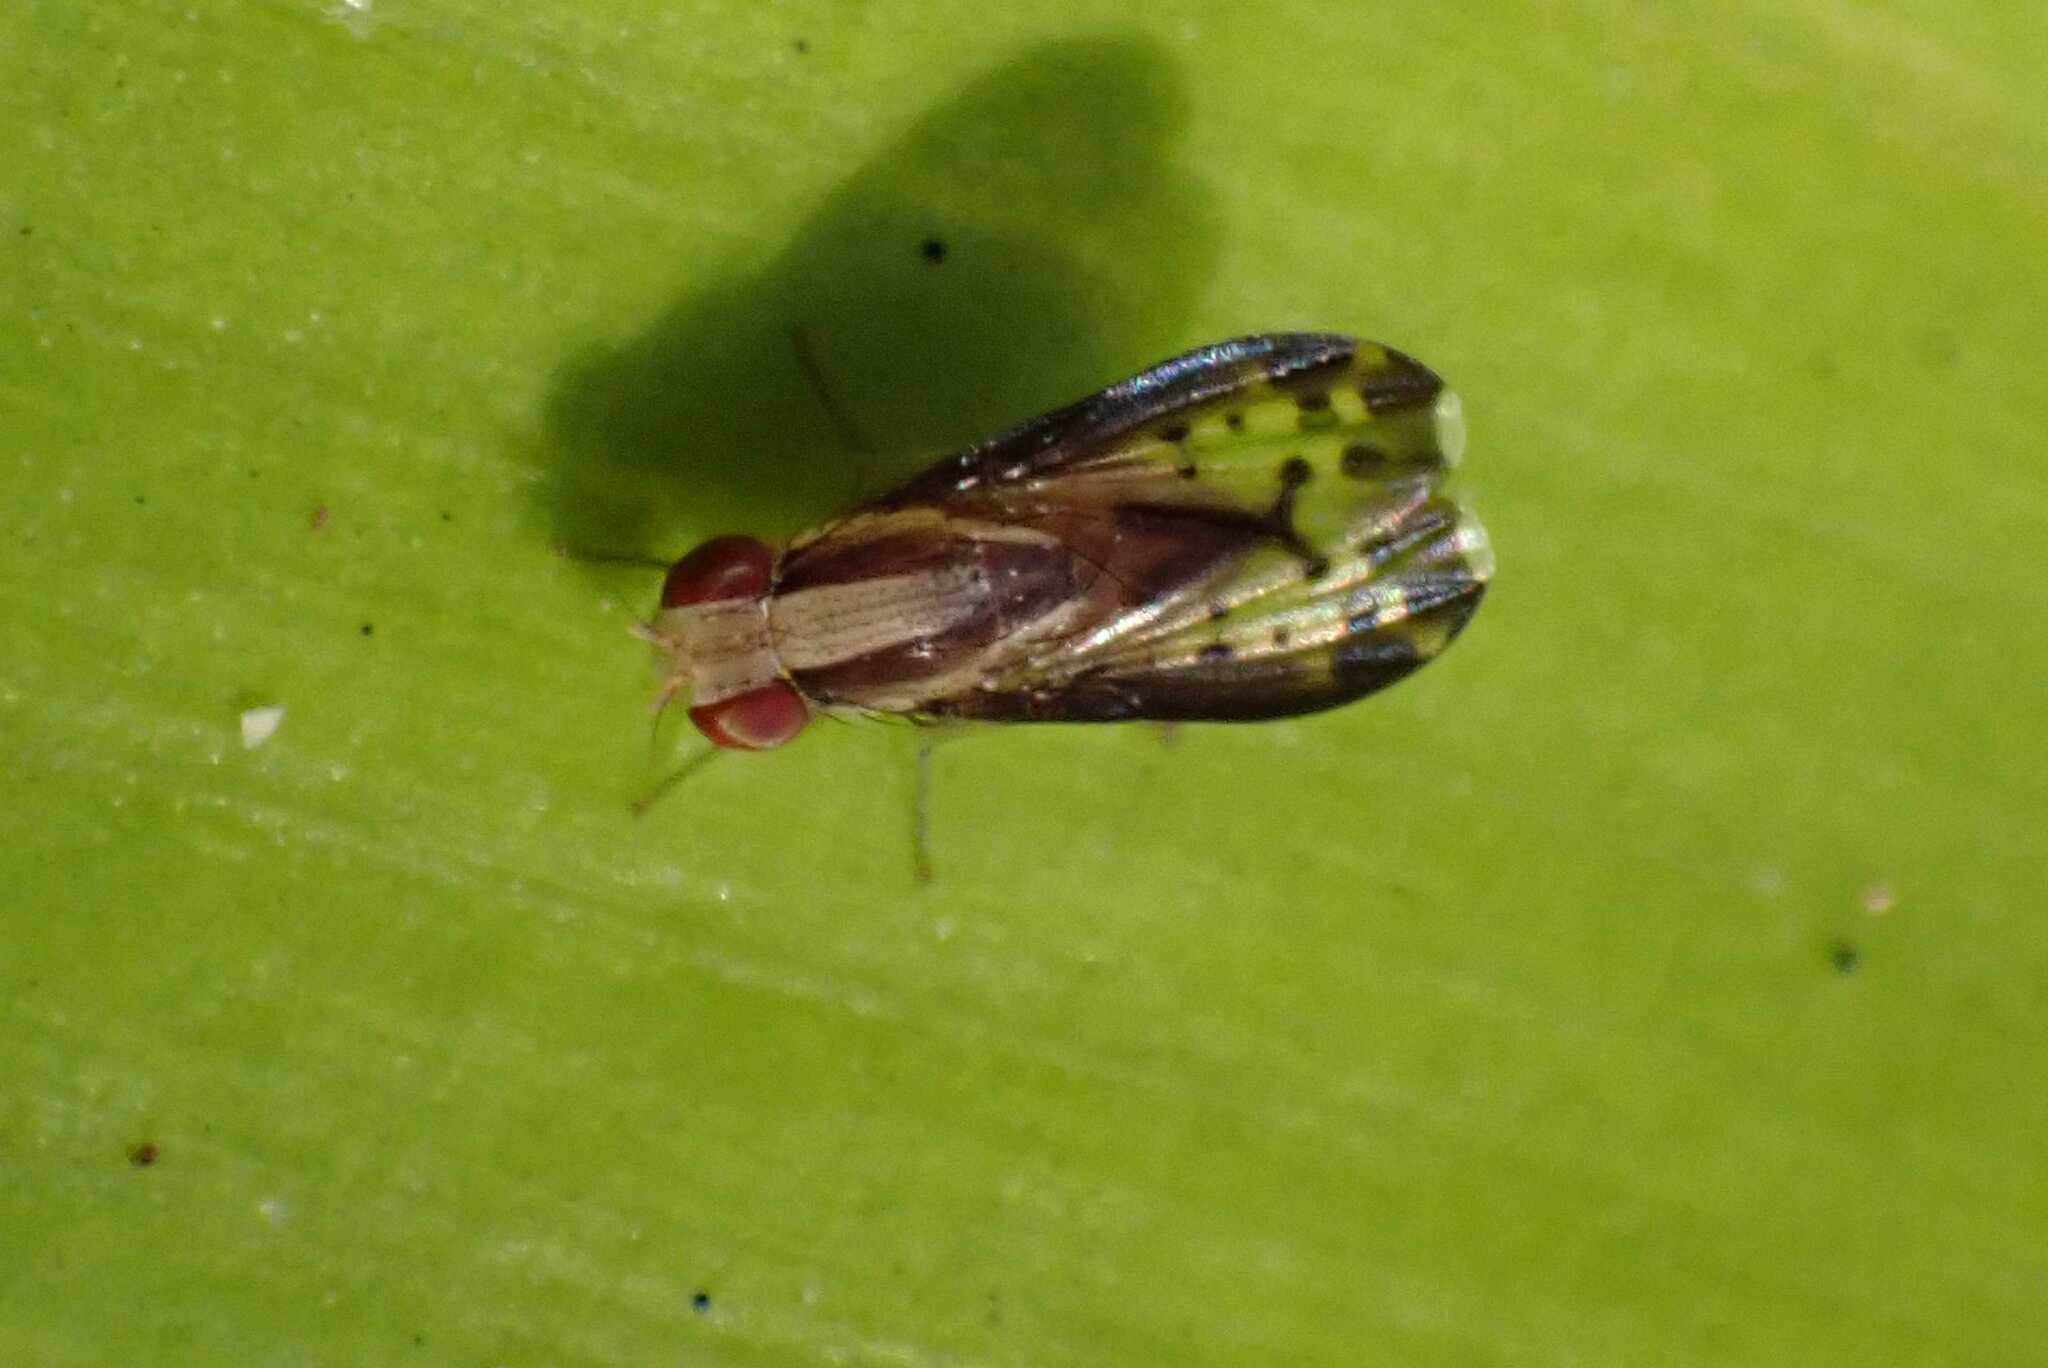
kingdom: Animalia
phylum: Arthropoda
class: Insecta
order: Diptera
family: Lauxaniidae
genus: Homoneura
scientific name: Homoneura terminalis
